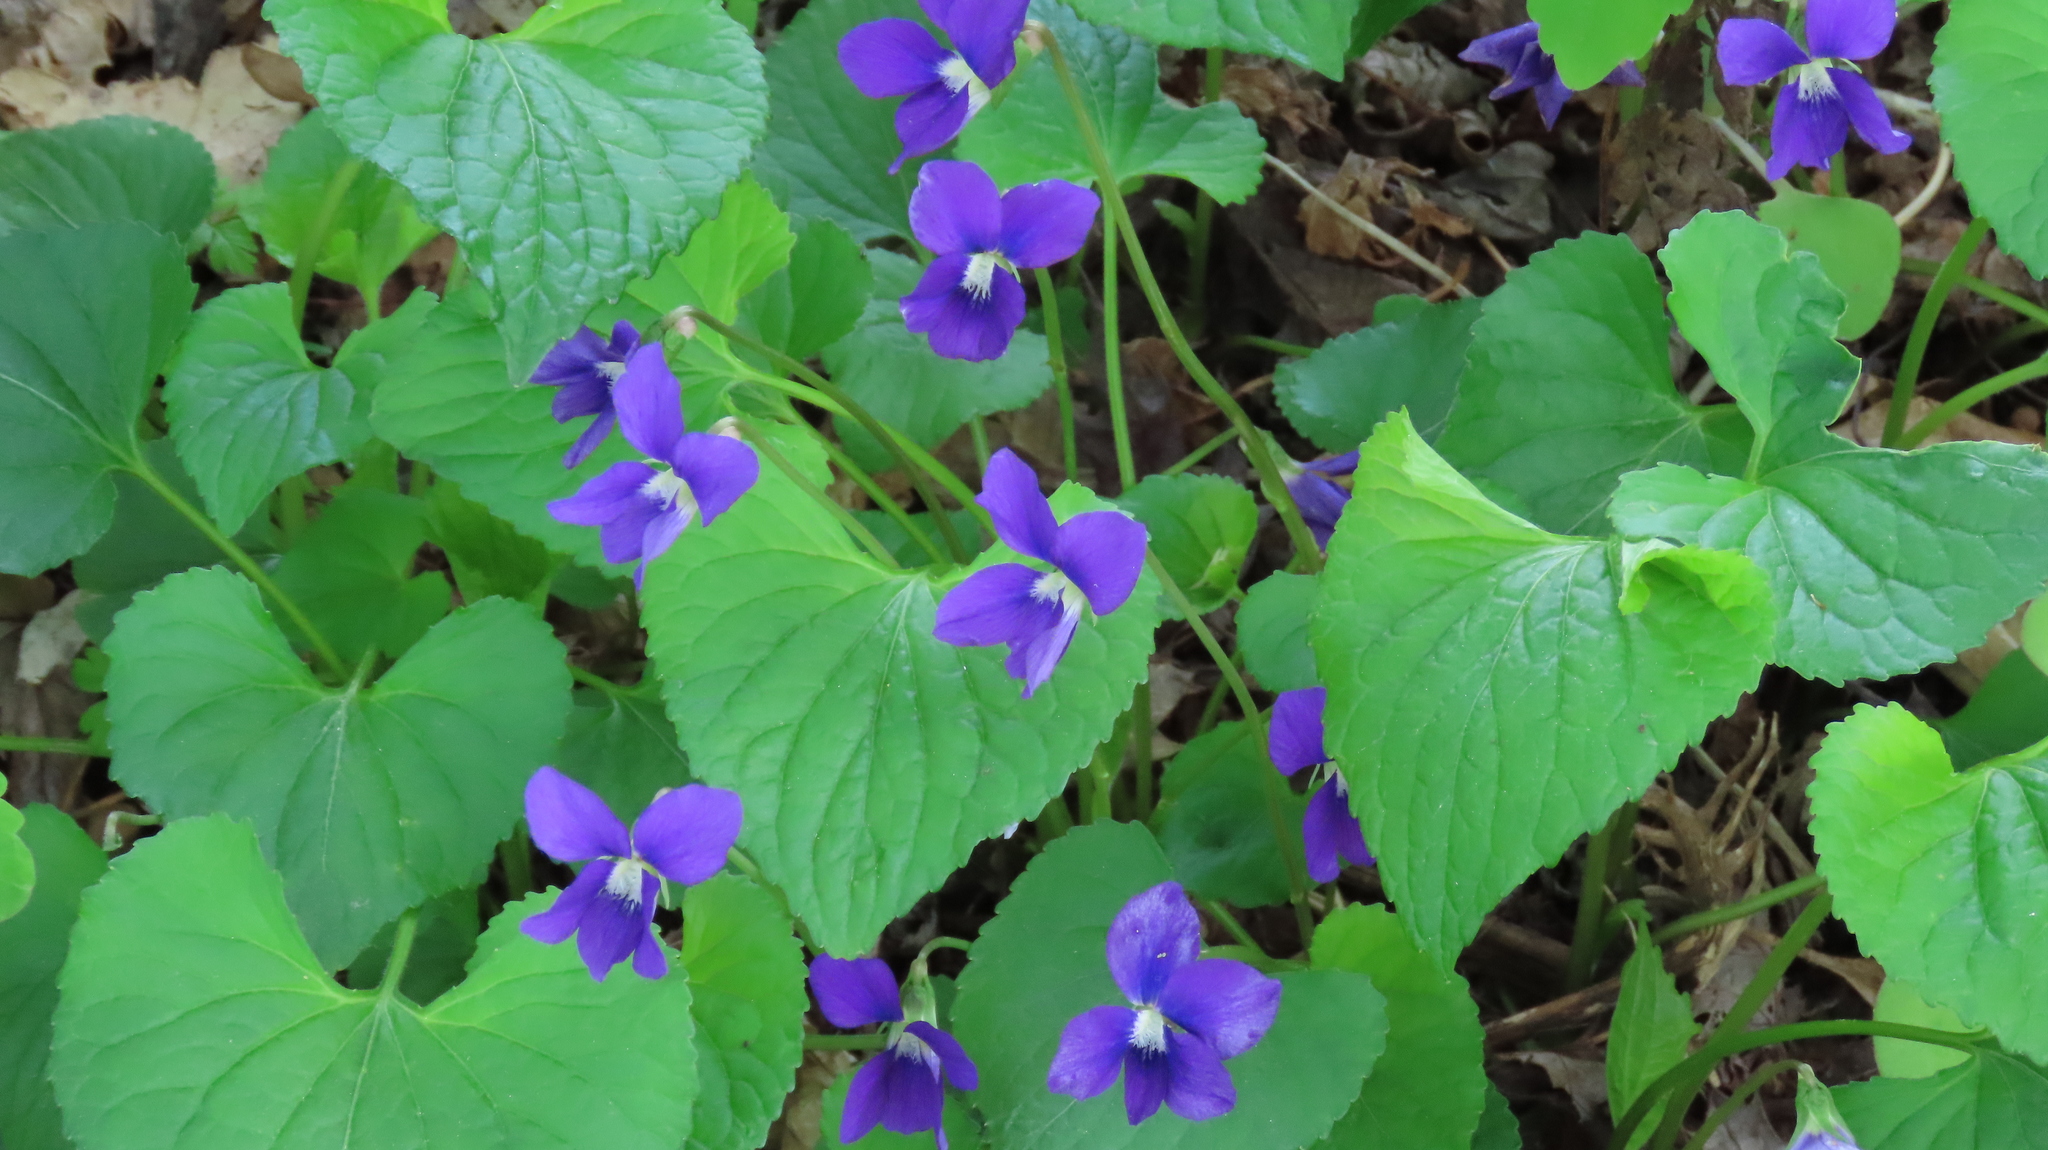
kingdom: Plantae
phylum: Tracheophyta
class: Magnoliopsida
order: Malpighiales
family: Violaceae
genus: Viola
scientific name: Viola sororia
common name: Dooryard violet
